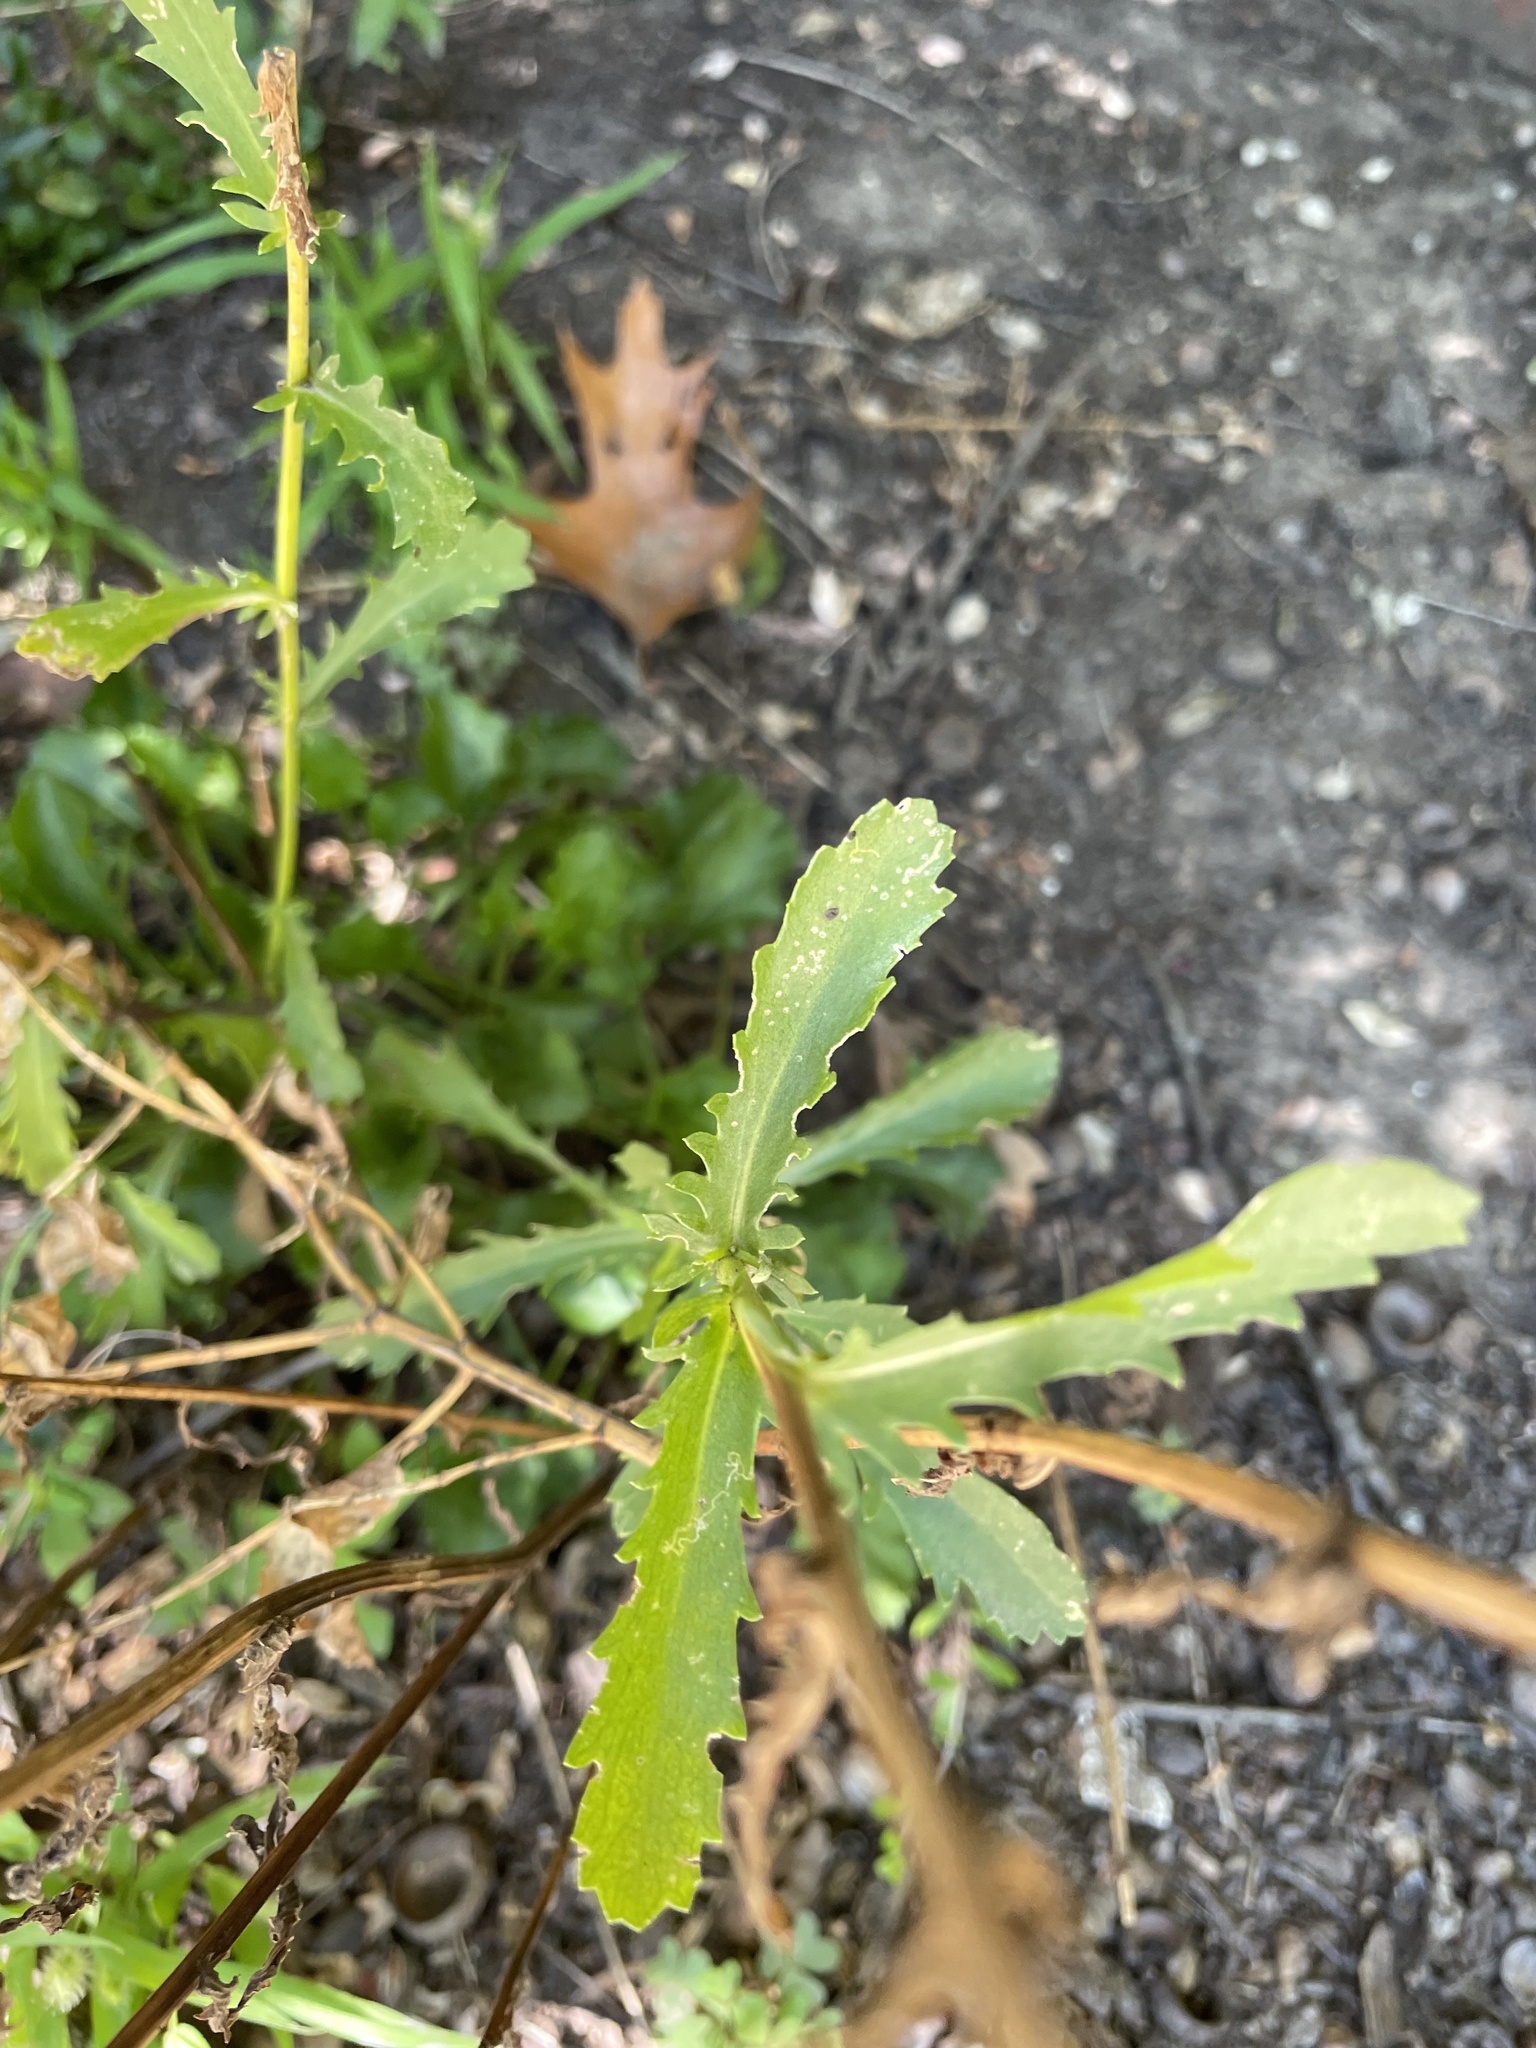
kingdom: Plantae
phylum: Tracheophyta
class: Magnoliopsida
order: Asterales
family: Asteraceae
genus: Leucanthemum
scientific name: Leucanthemum vulgare
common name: Oxeye daisy
